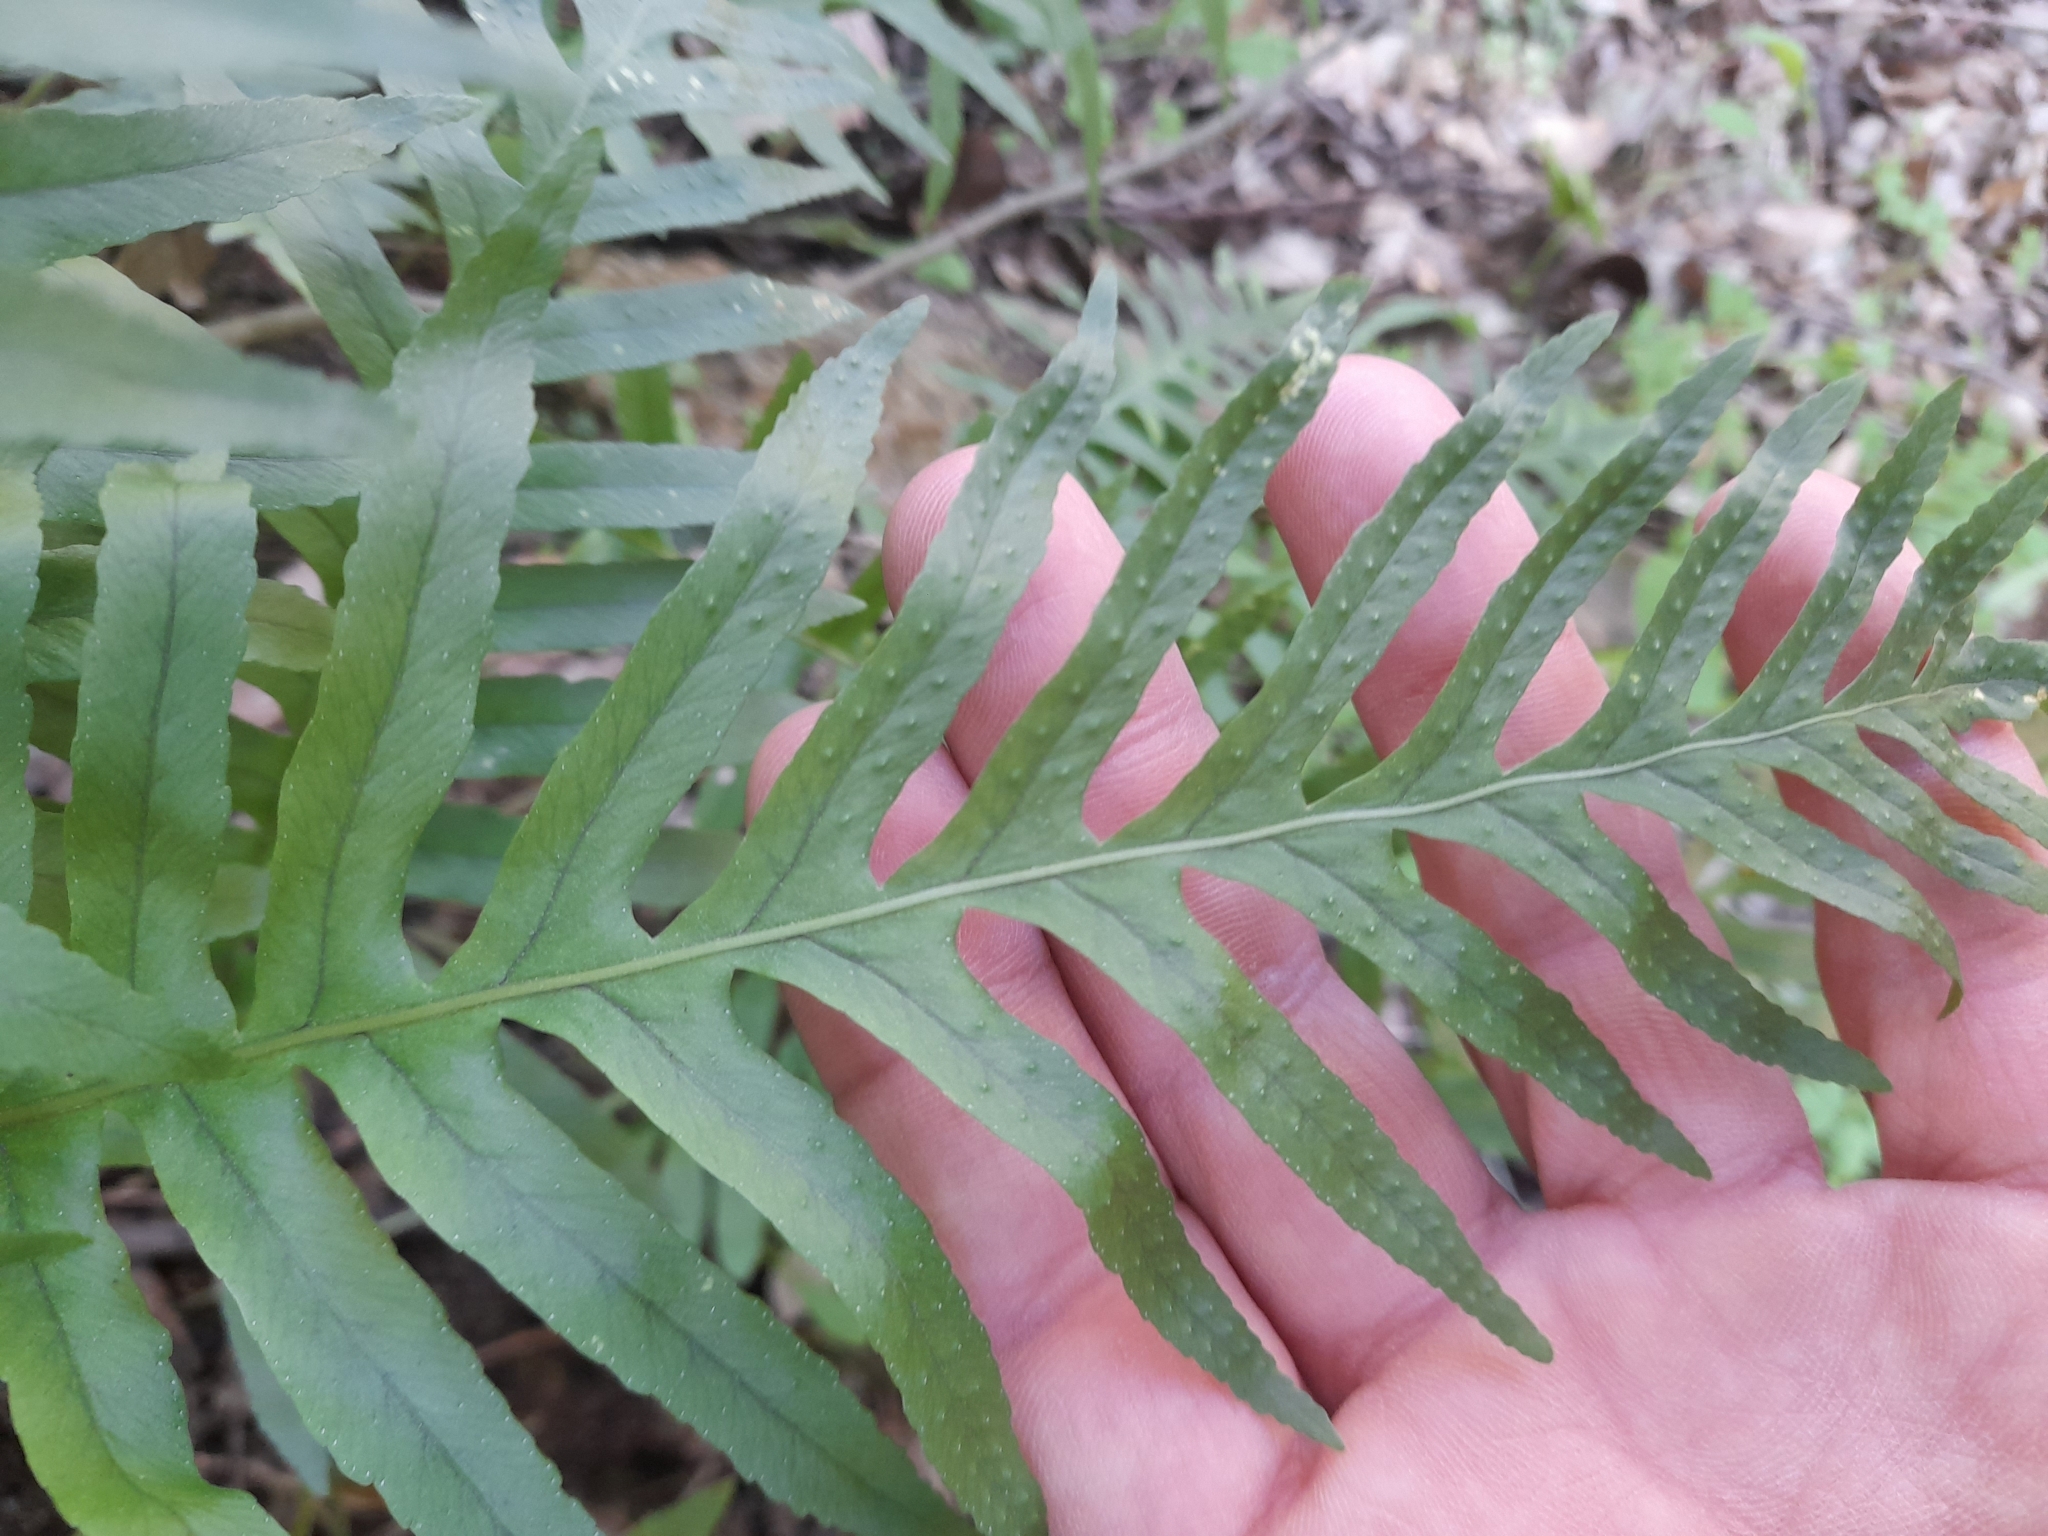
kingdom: Plantae
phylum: Tracheophyta
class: Polypodiopsida
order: Polypodiales
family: Polypodiaceae
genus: Polypodium
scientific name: Polypodium cambricum
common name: Southern polypody
